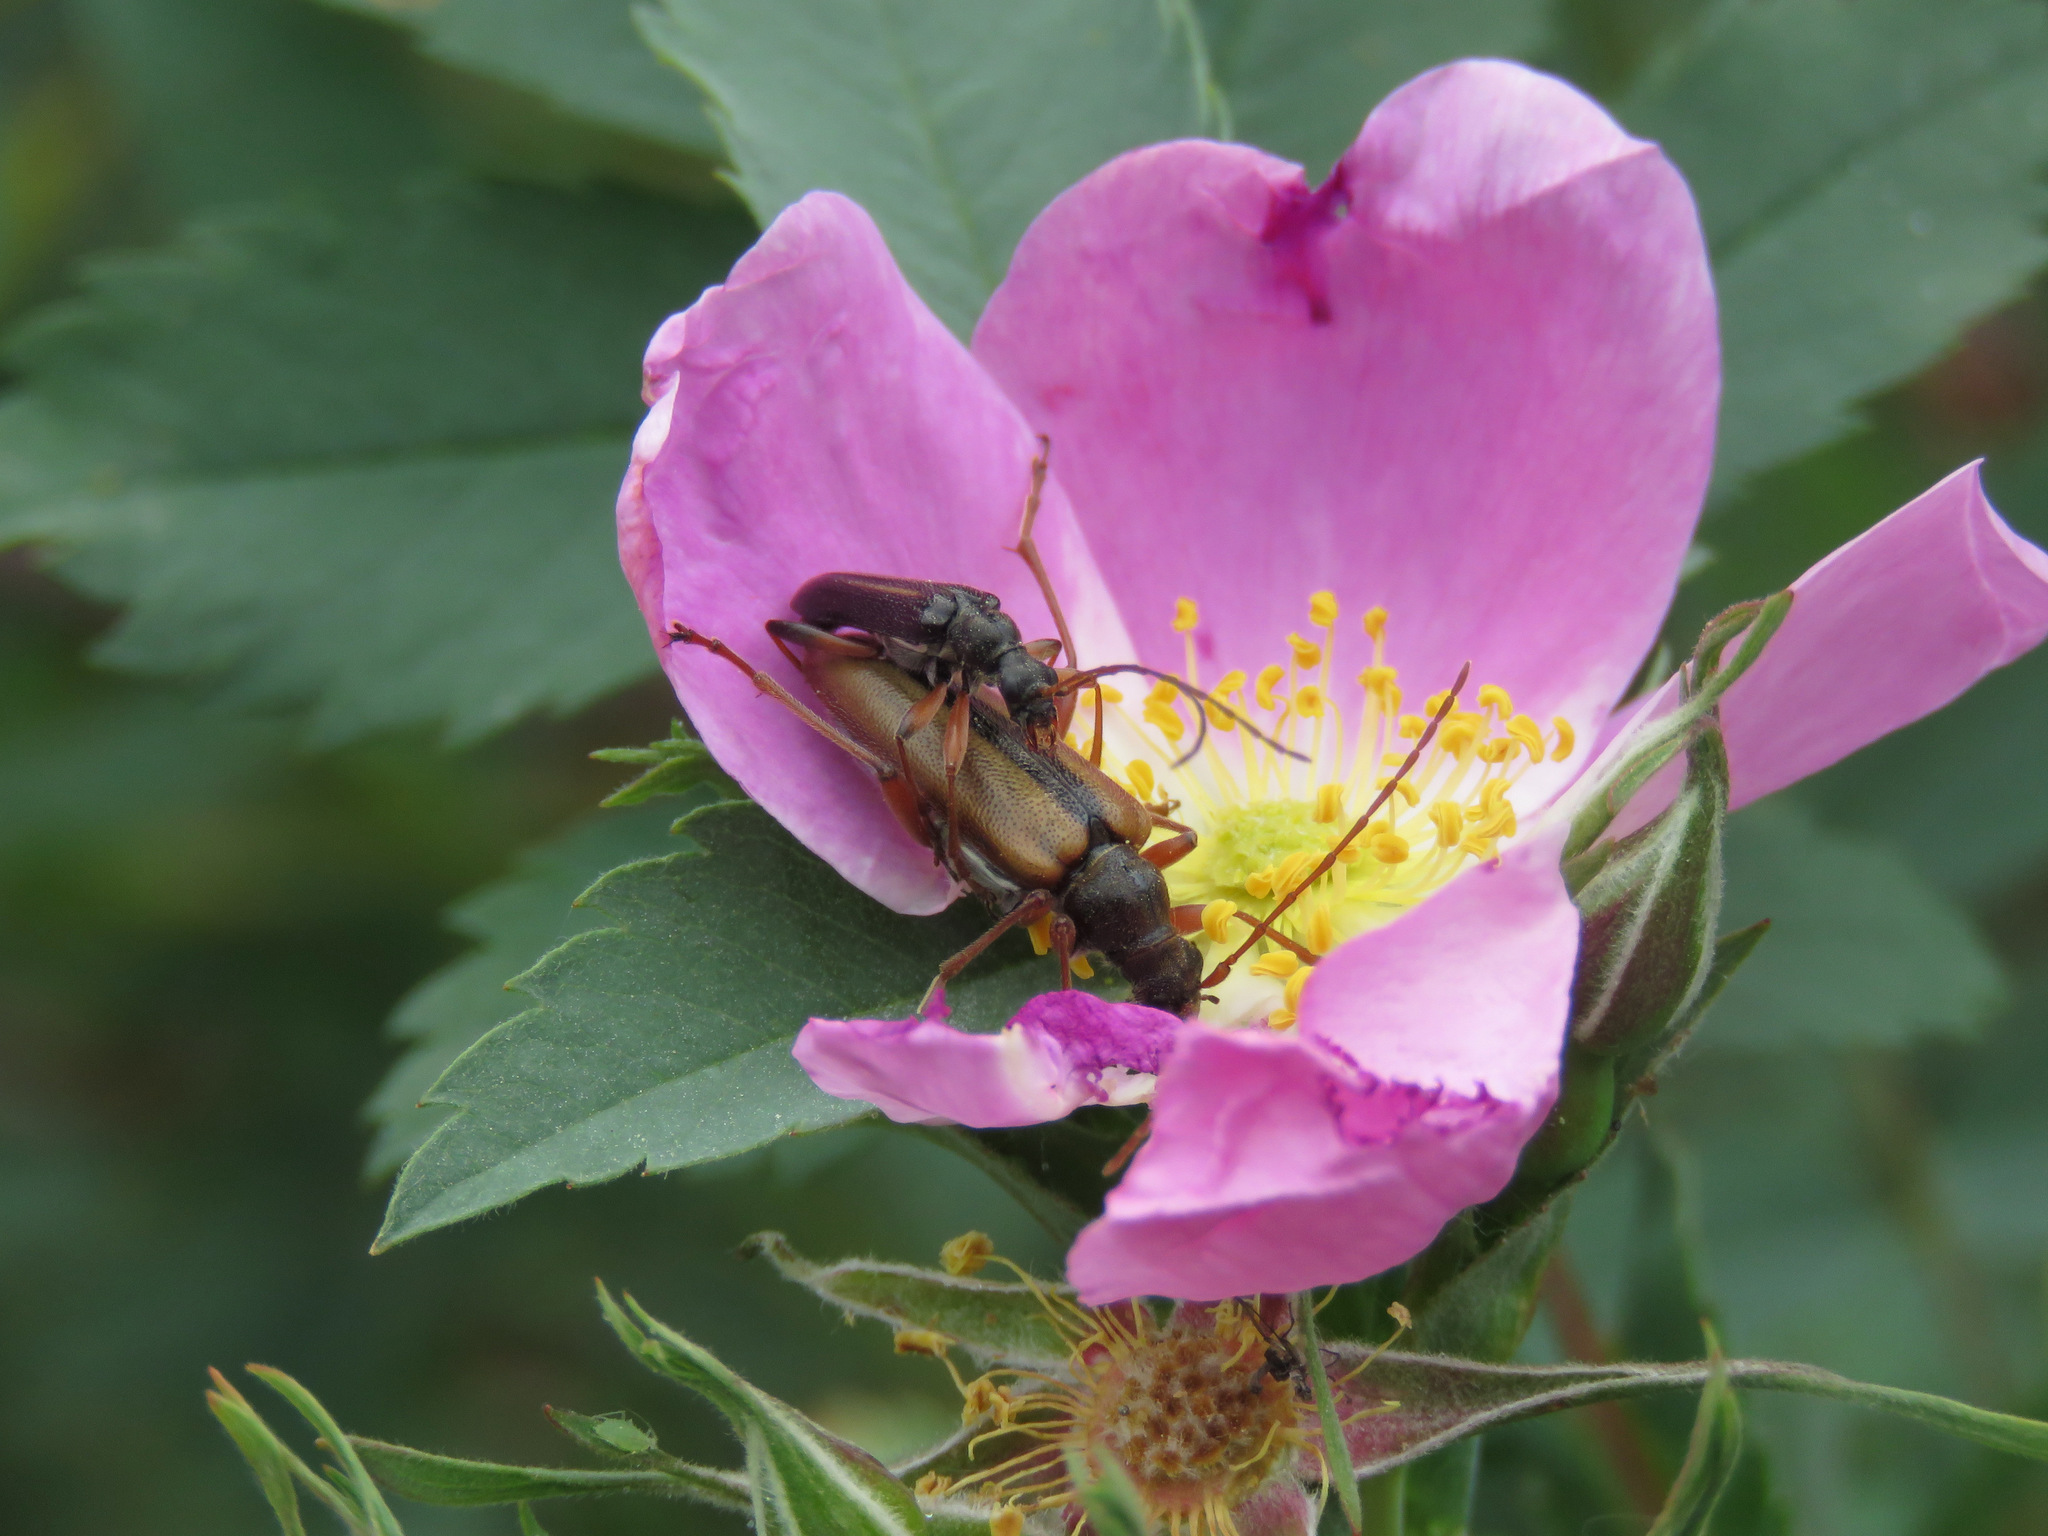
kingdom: Animalia
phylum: Arthropoda
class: Insecta
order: Coleoptera
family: Cerambycidae
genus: Cortodera
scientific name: Cortodera longicornis
